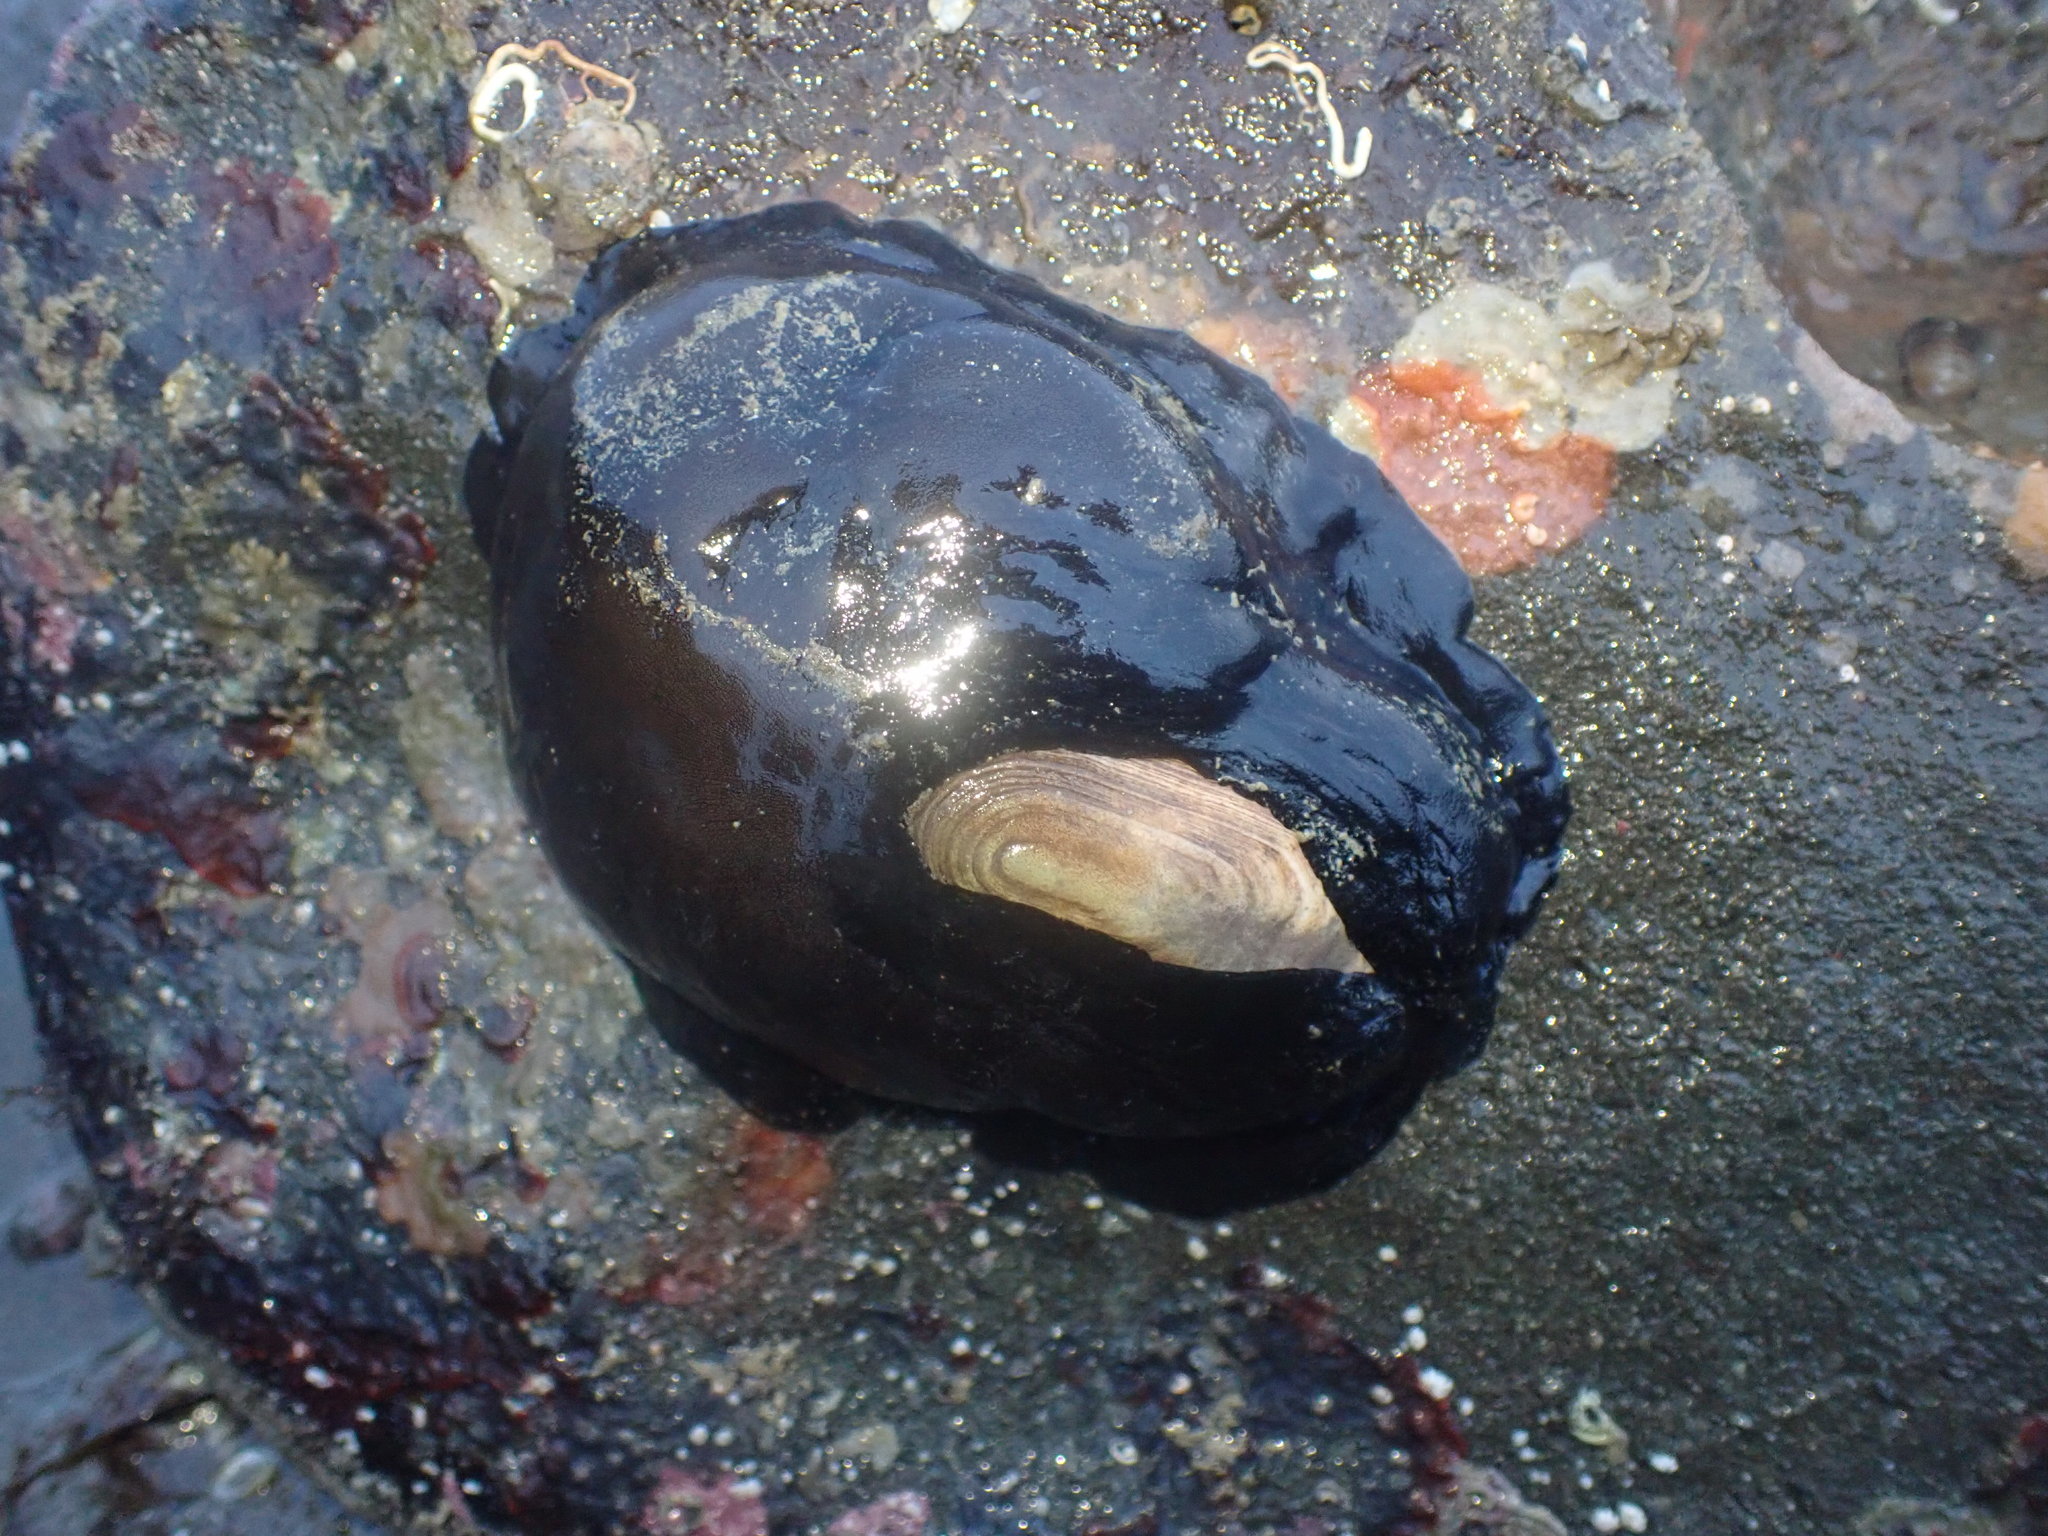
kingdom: Animalia
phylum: Mollusca
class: Gastropoda
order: Lepetellida
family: Fissurellidae
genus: Scutus
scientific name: Scutus breviculus
